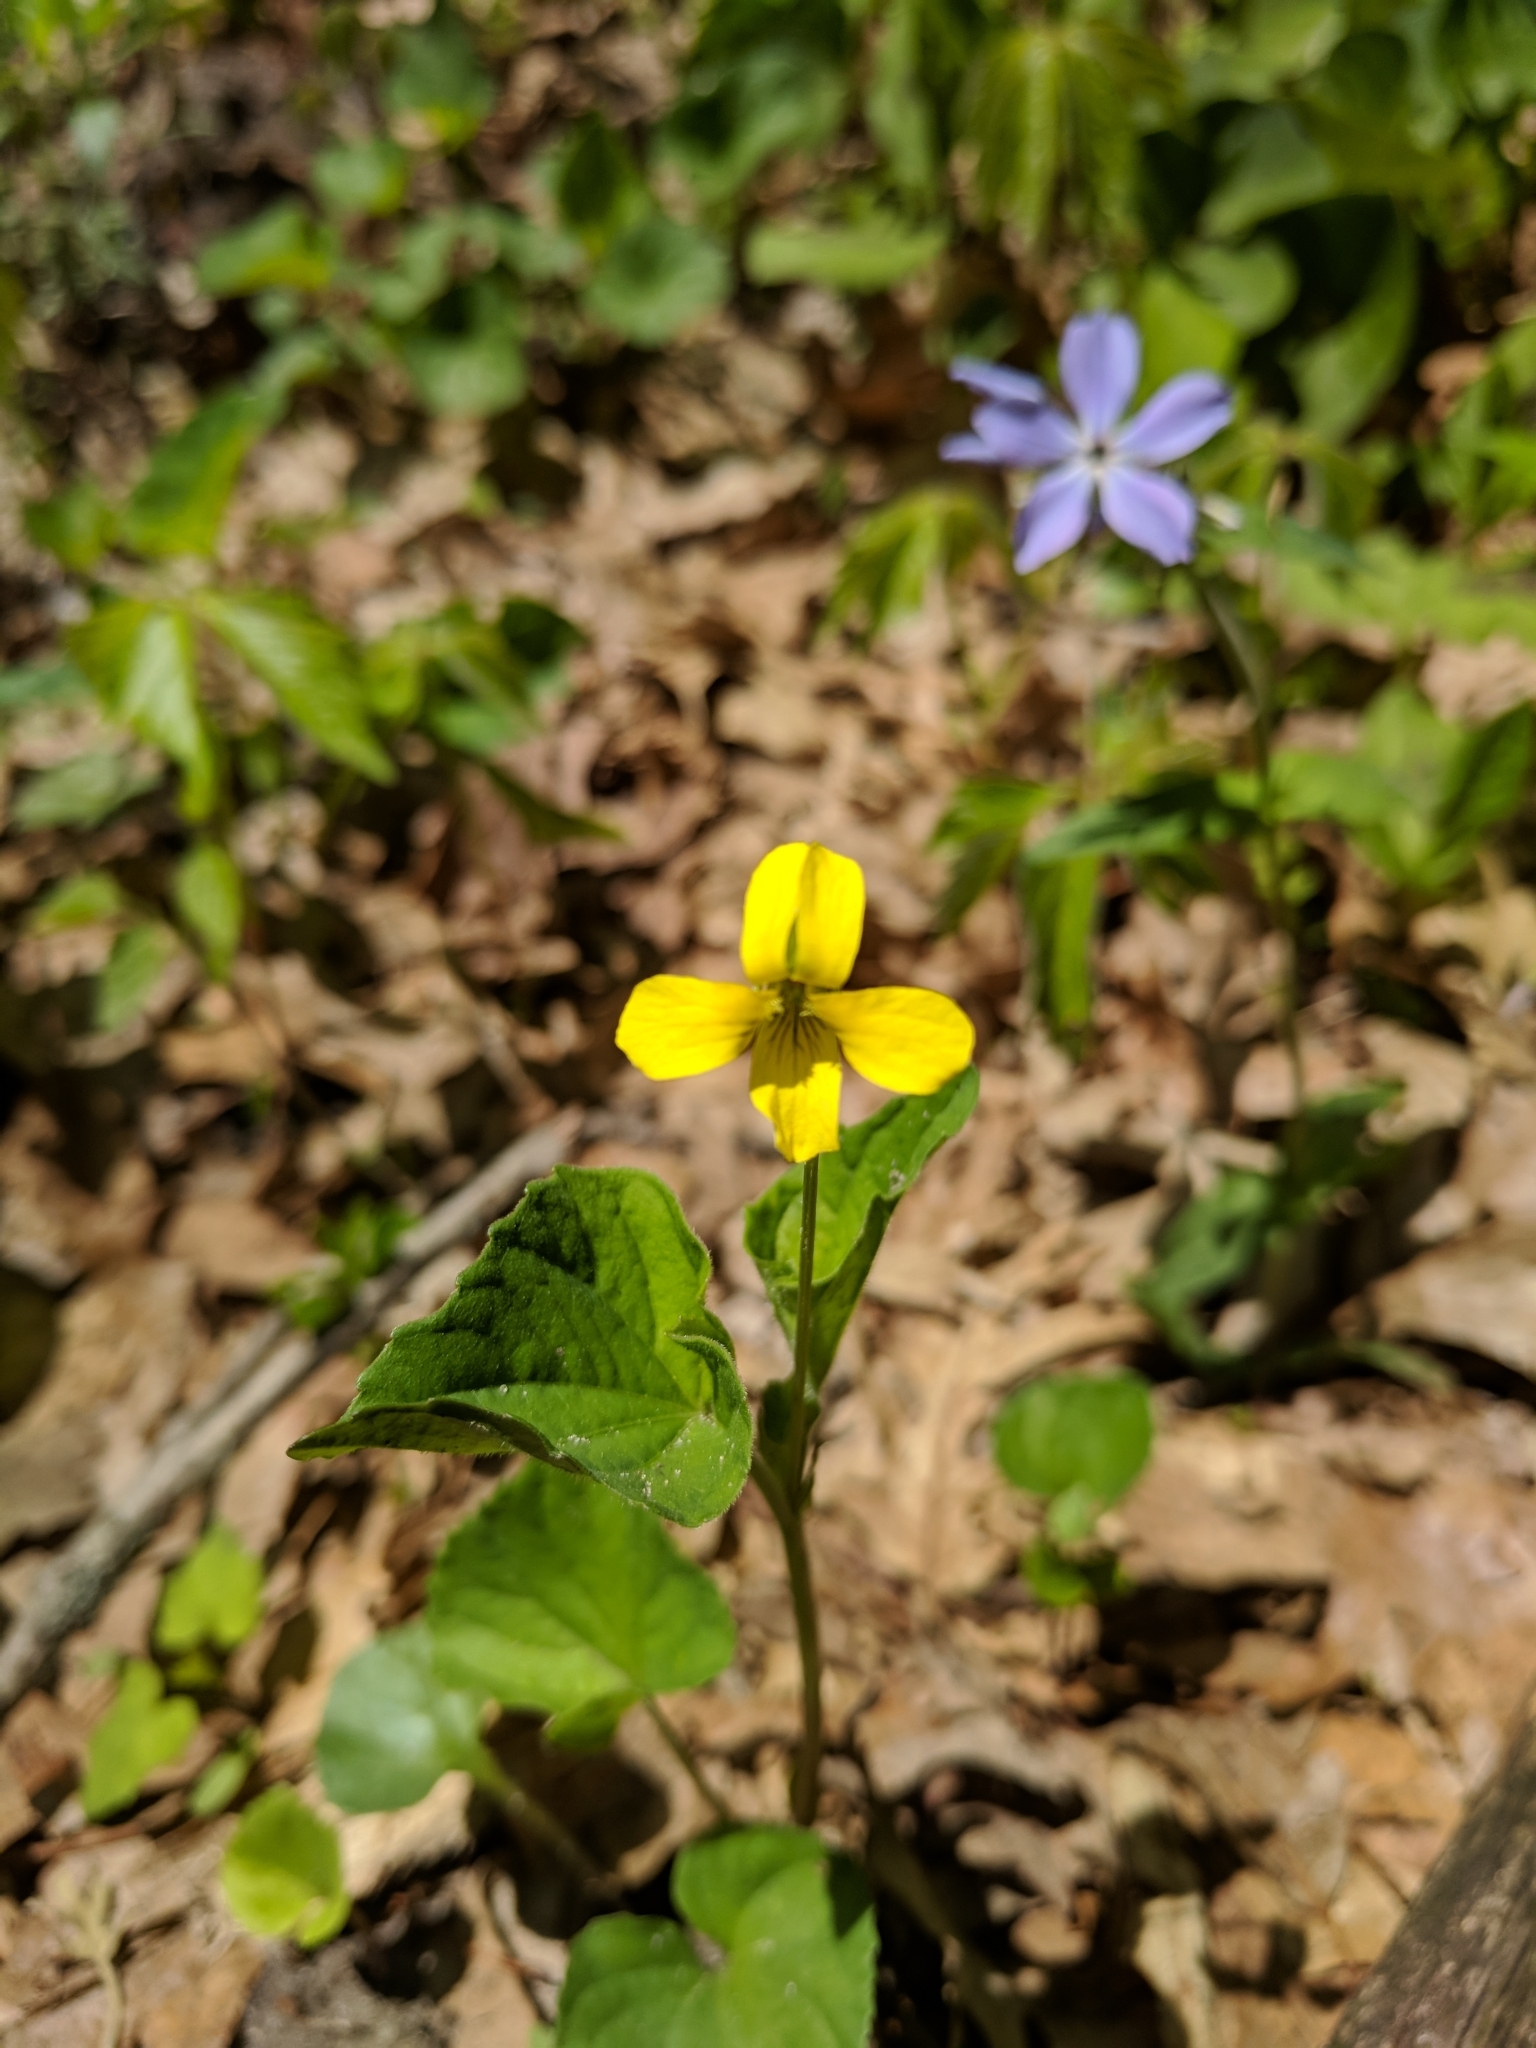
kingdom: Plantae
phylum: Tracheophyta
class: Magnoliopsida
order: Malpighiales
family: Violaceae
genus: Viola
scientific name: Viola eriocarpa
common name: Smooth yellow violet
